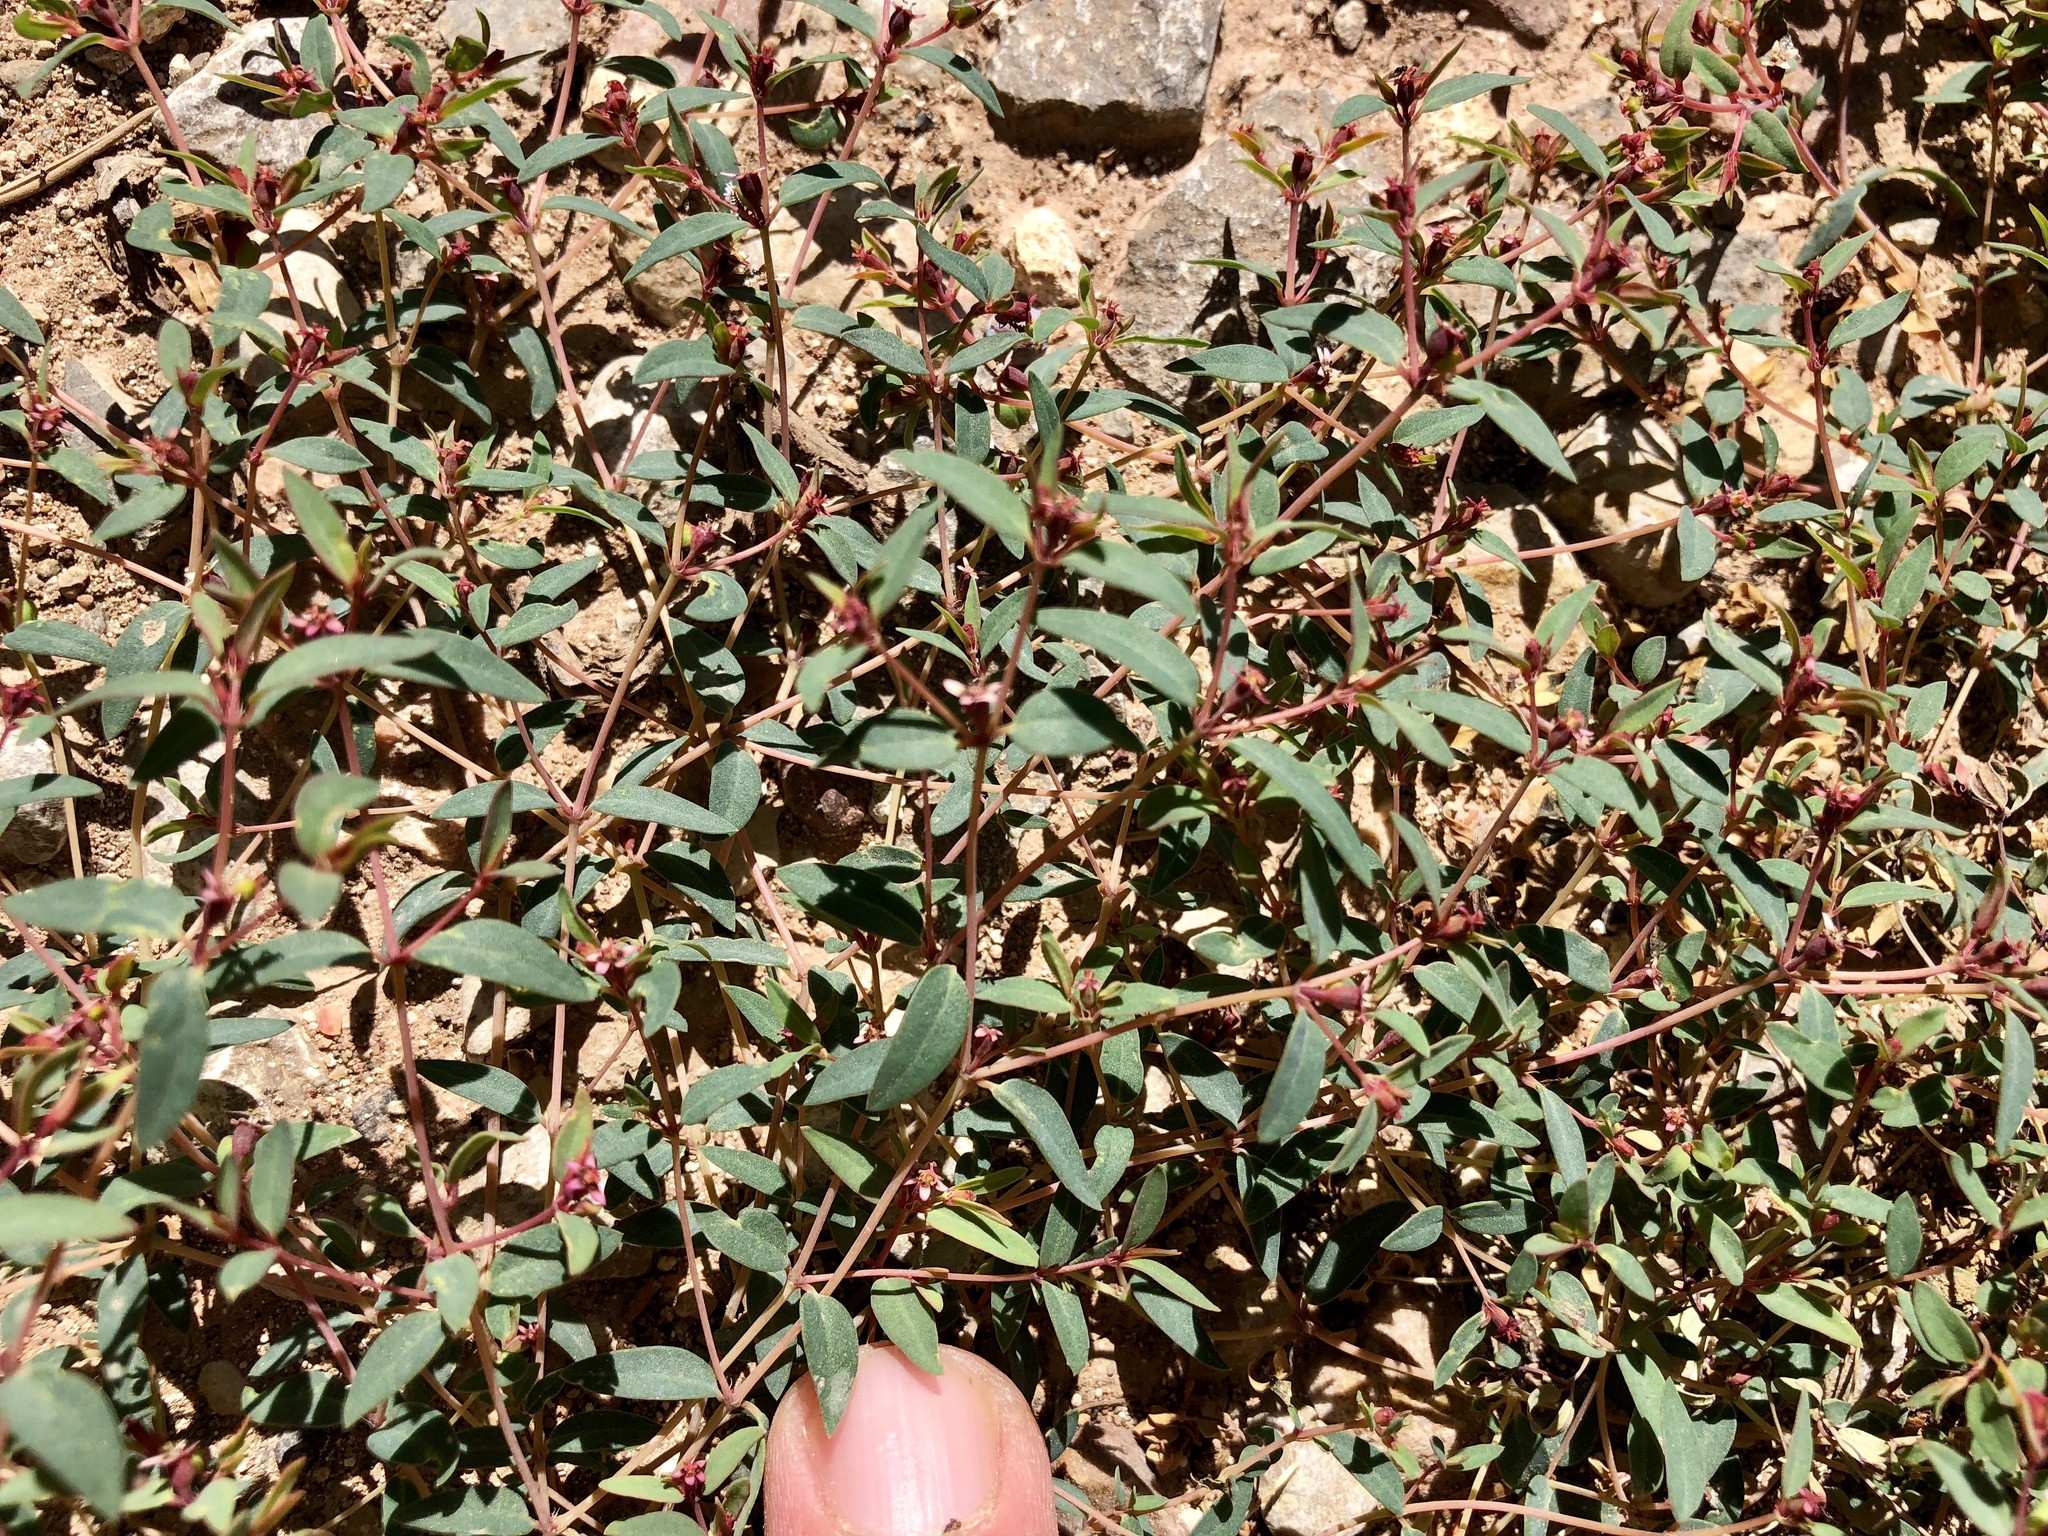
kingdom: Plantae
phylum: Tracheophyta
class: Magnoliopsida
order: Malpighiales
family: Euphorbiaceae
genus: Euphorbia
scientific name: Euphorbia chaetocalyx
